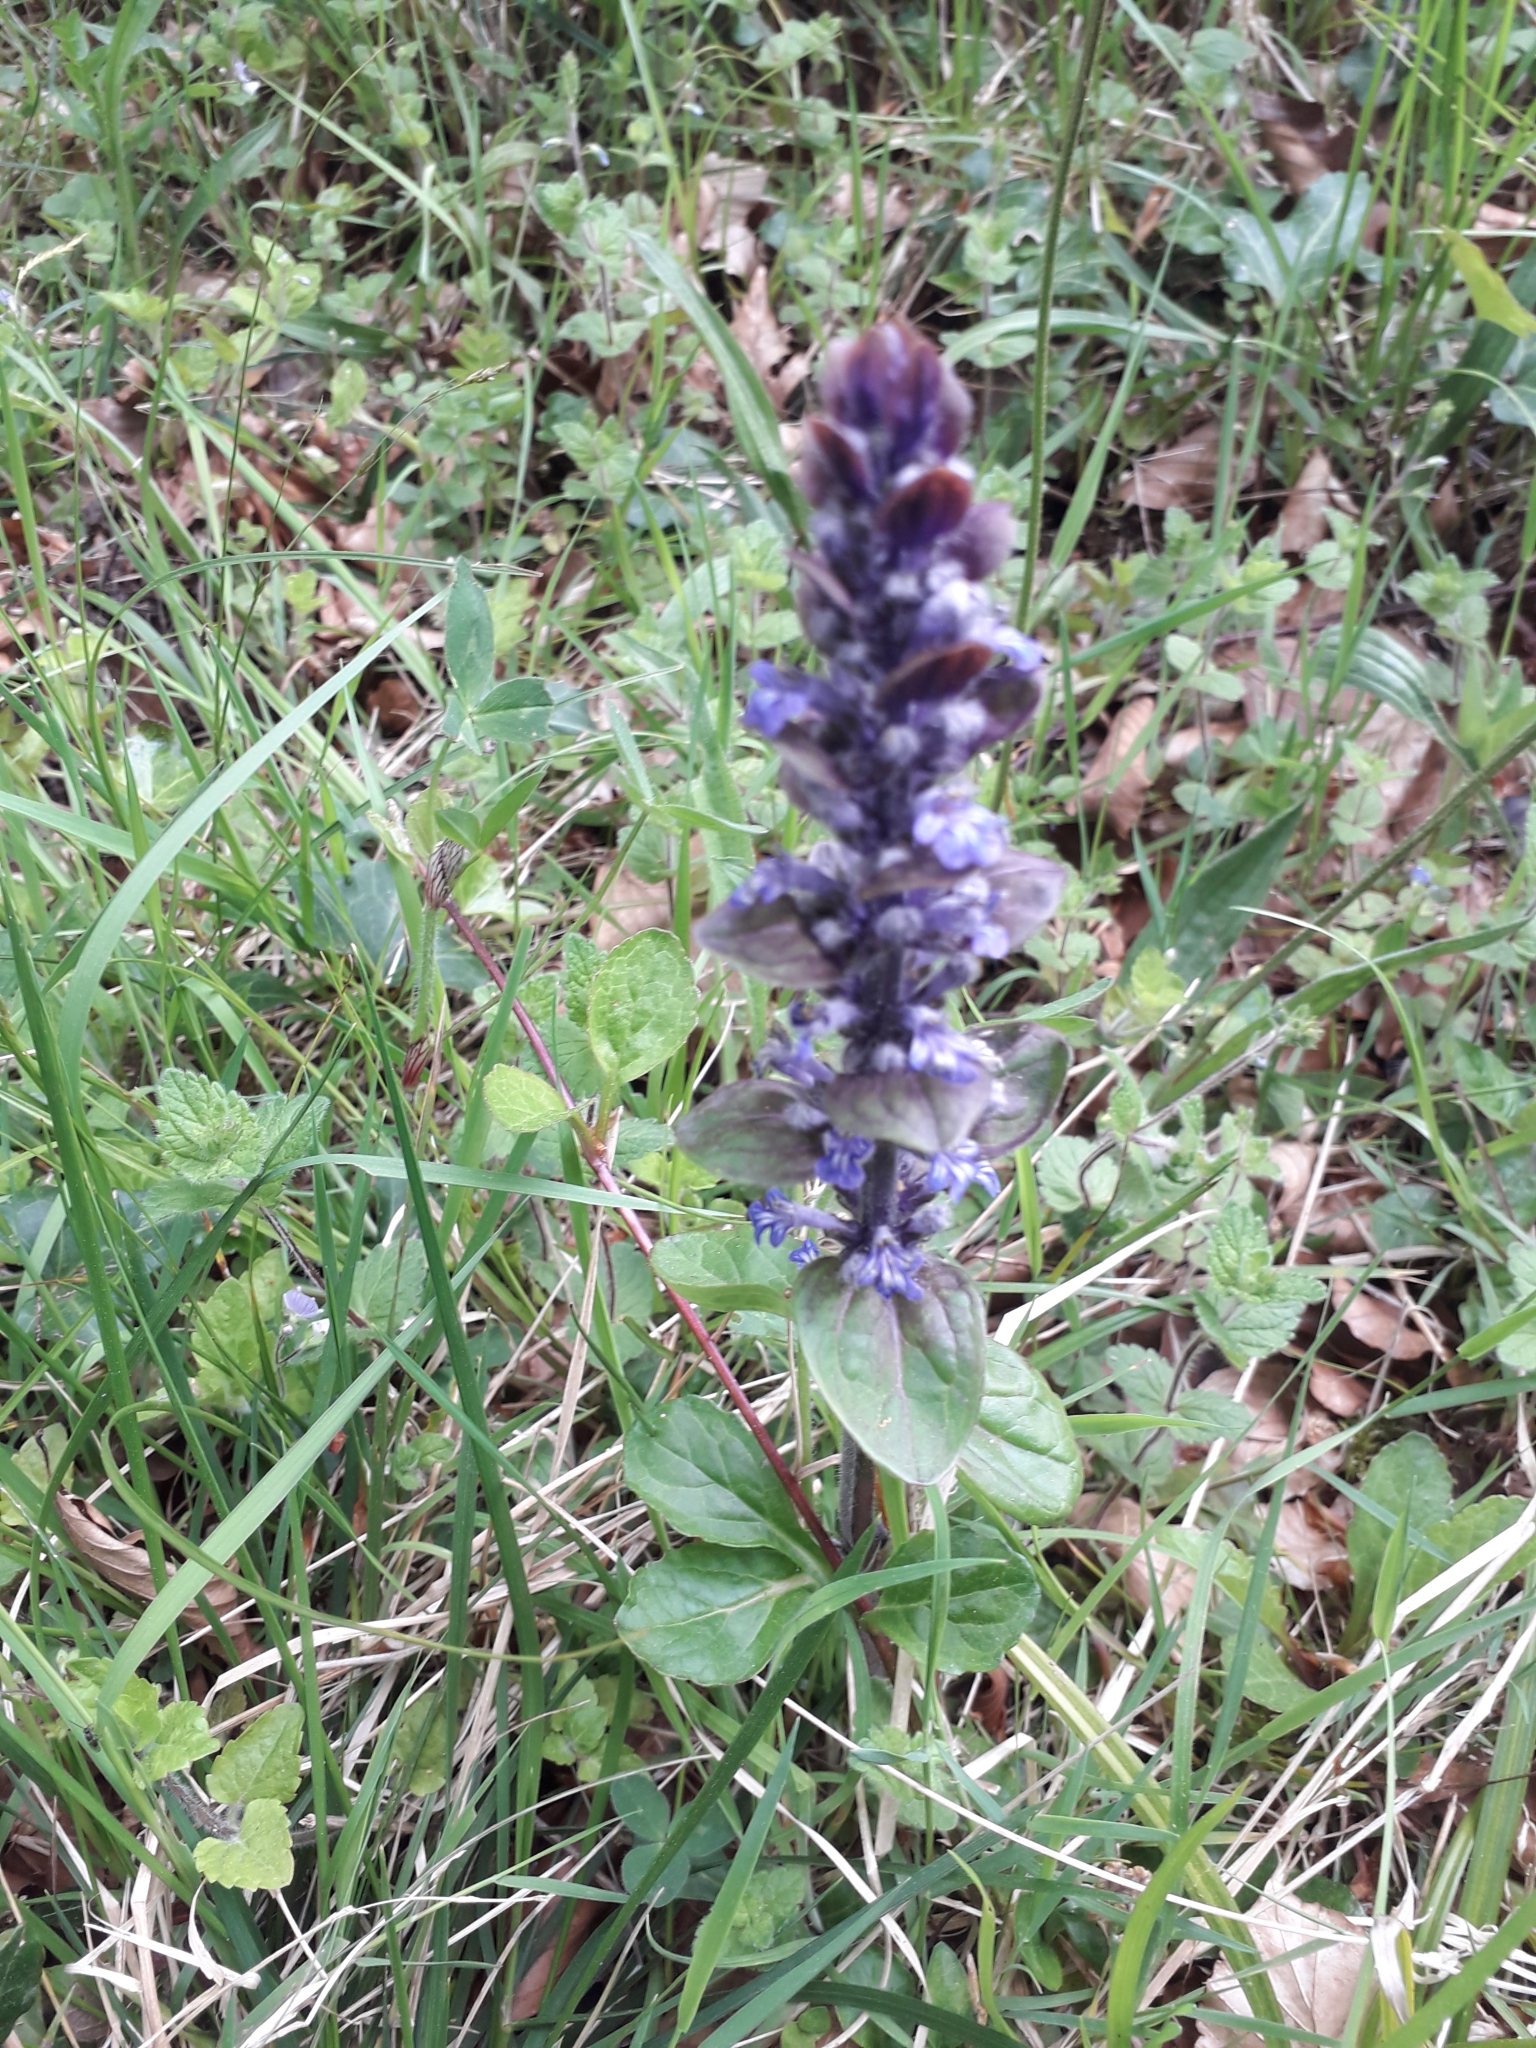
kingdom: Plantae
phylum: Tracheophyta
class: Magnoliopsida
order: Lamiales
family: Lamiaceae
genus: Ajuga
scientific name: Ajuga reptans
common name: Bugle
